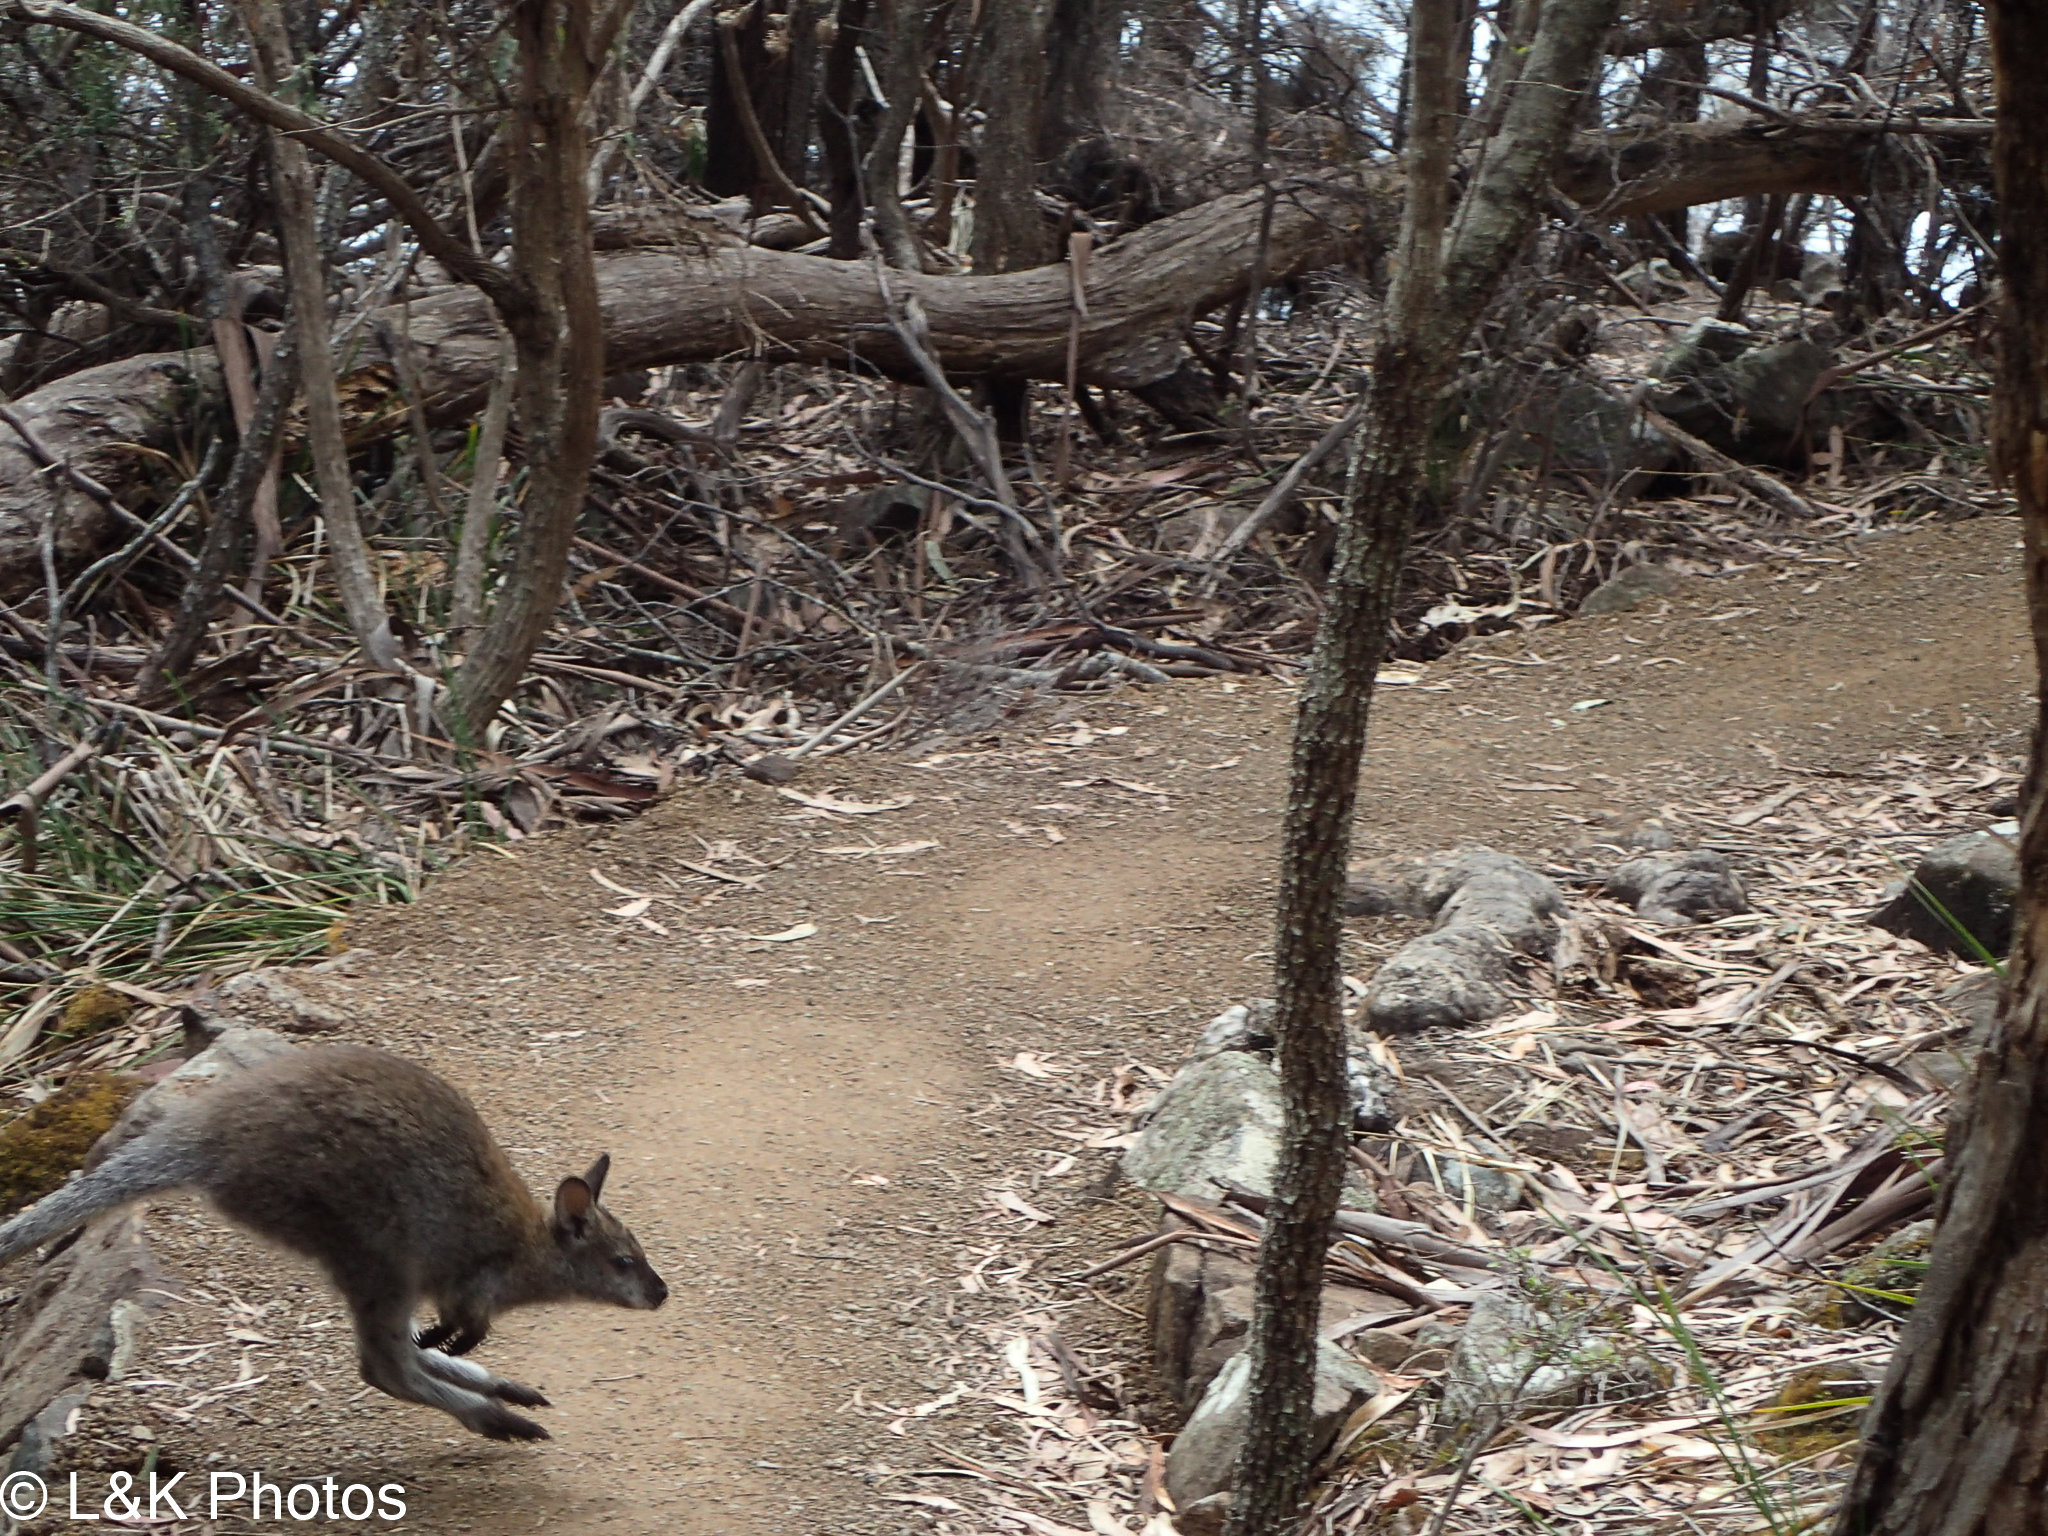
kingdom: Animalia
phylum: Chordata
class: Mammalia
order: Diprotodontia
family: Macropodidae
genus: Notamacropus
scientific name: Notamacropus rufogriseus
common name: Red-necked wallaby
